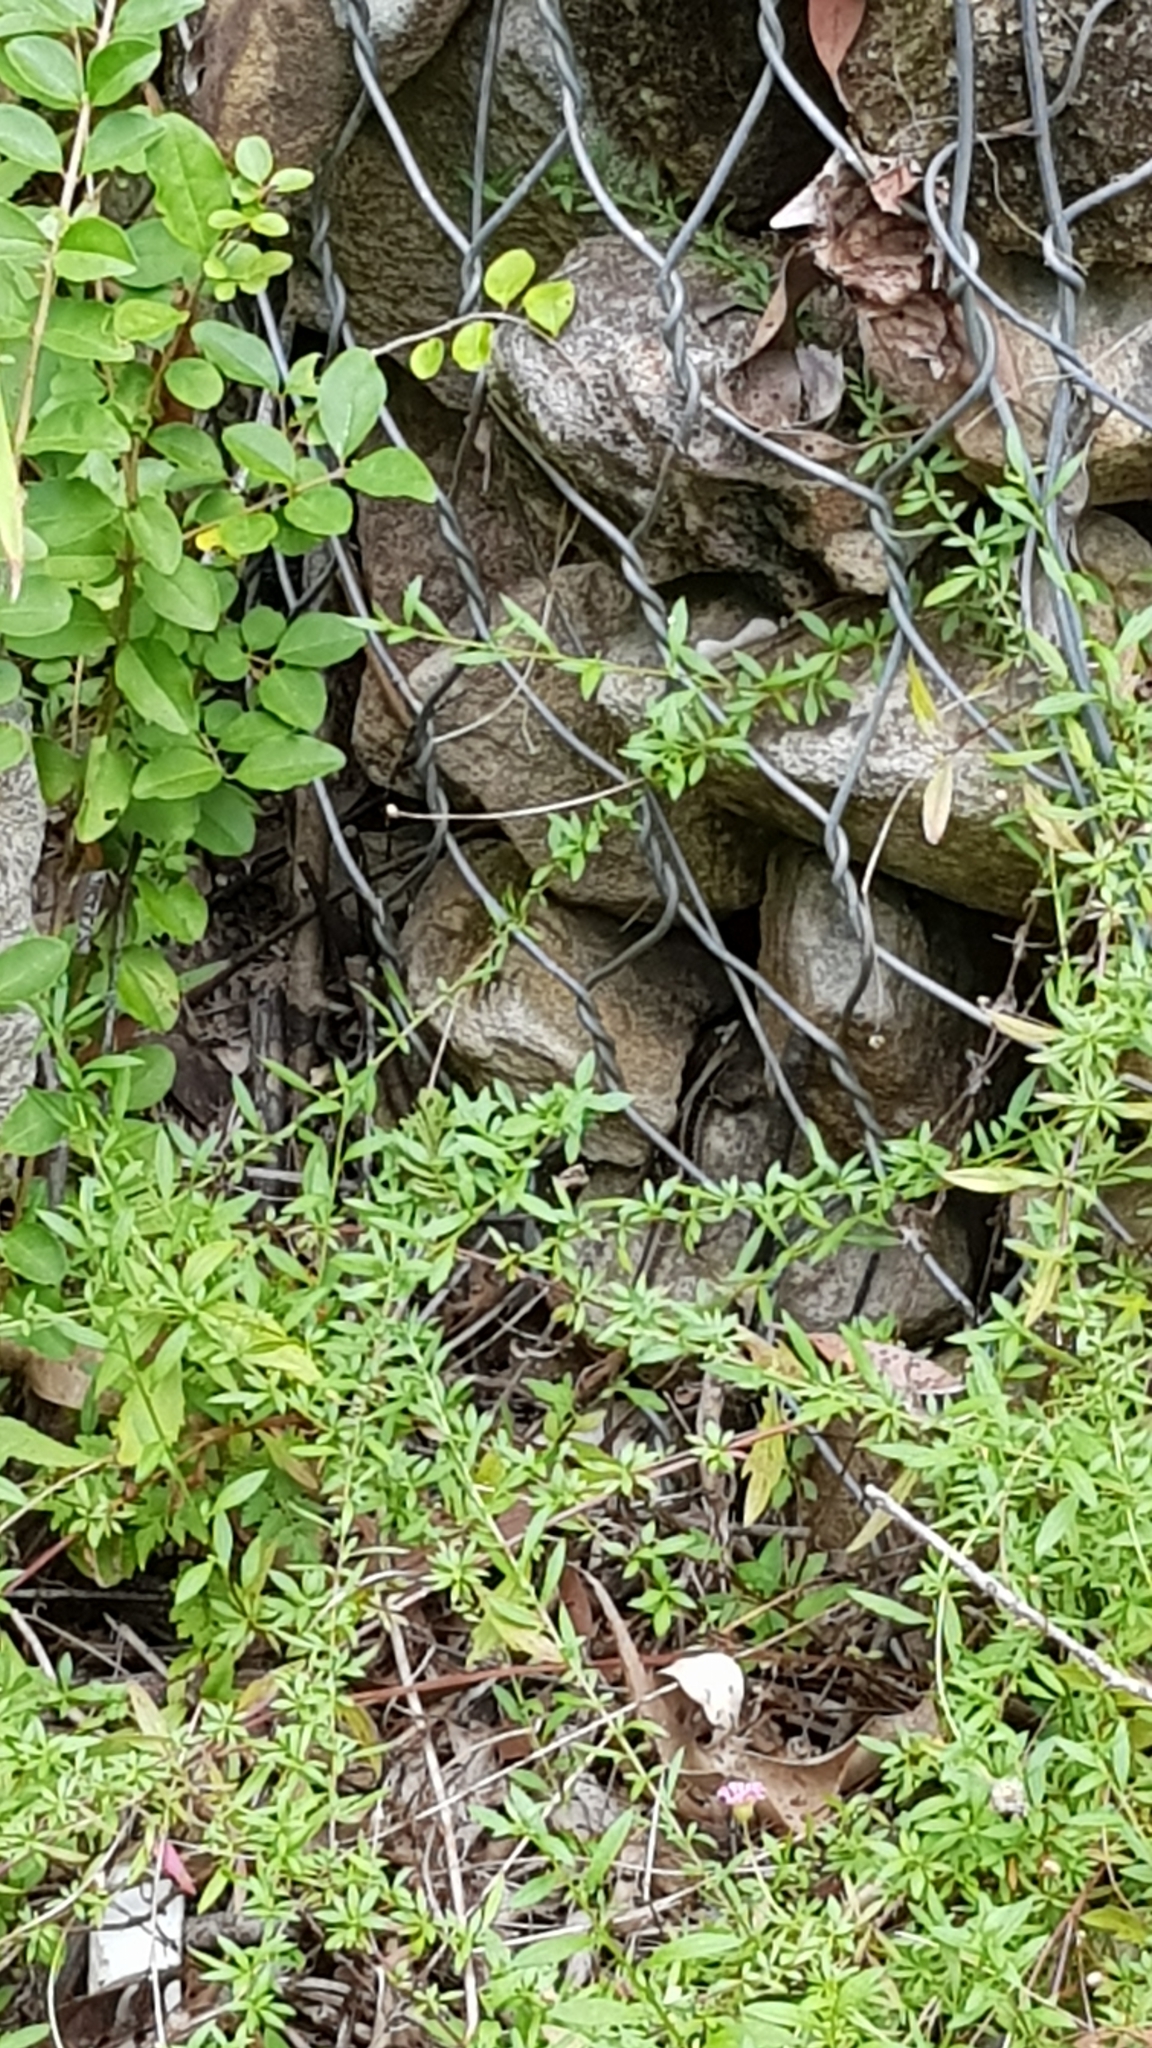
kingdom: Animalia
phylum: Chordata
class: Squamata
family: Scincidae
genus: Eulamprus
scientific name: Eulamprus quoyii
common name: Eastern water skink
